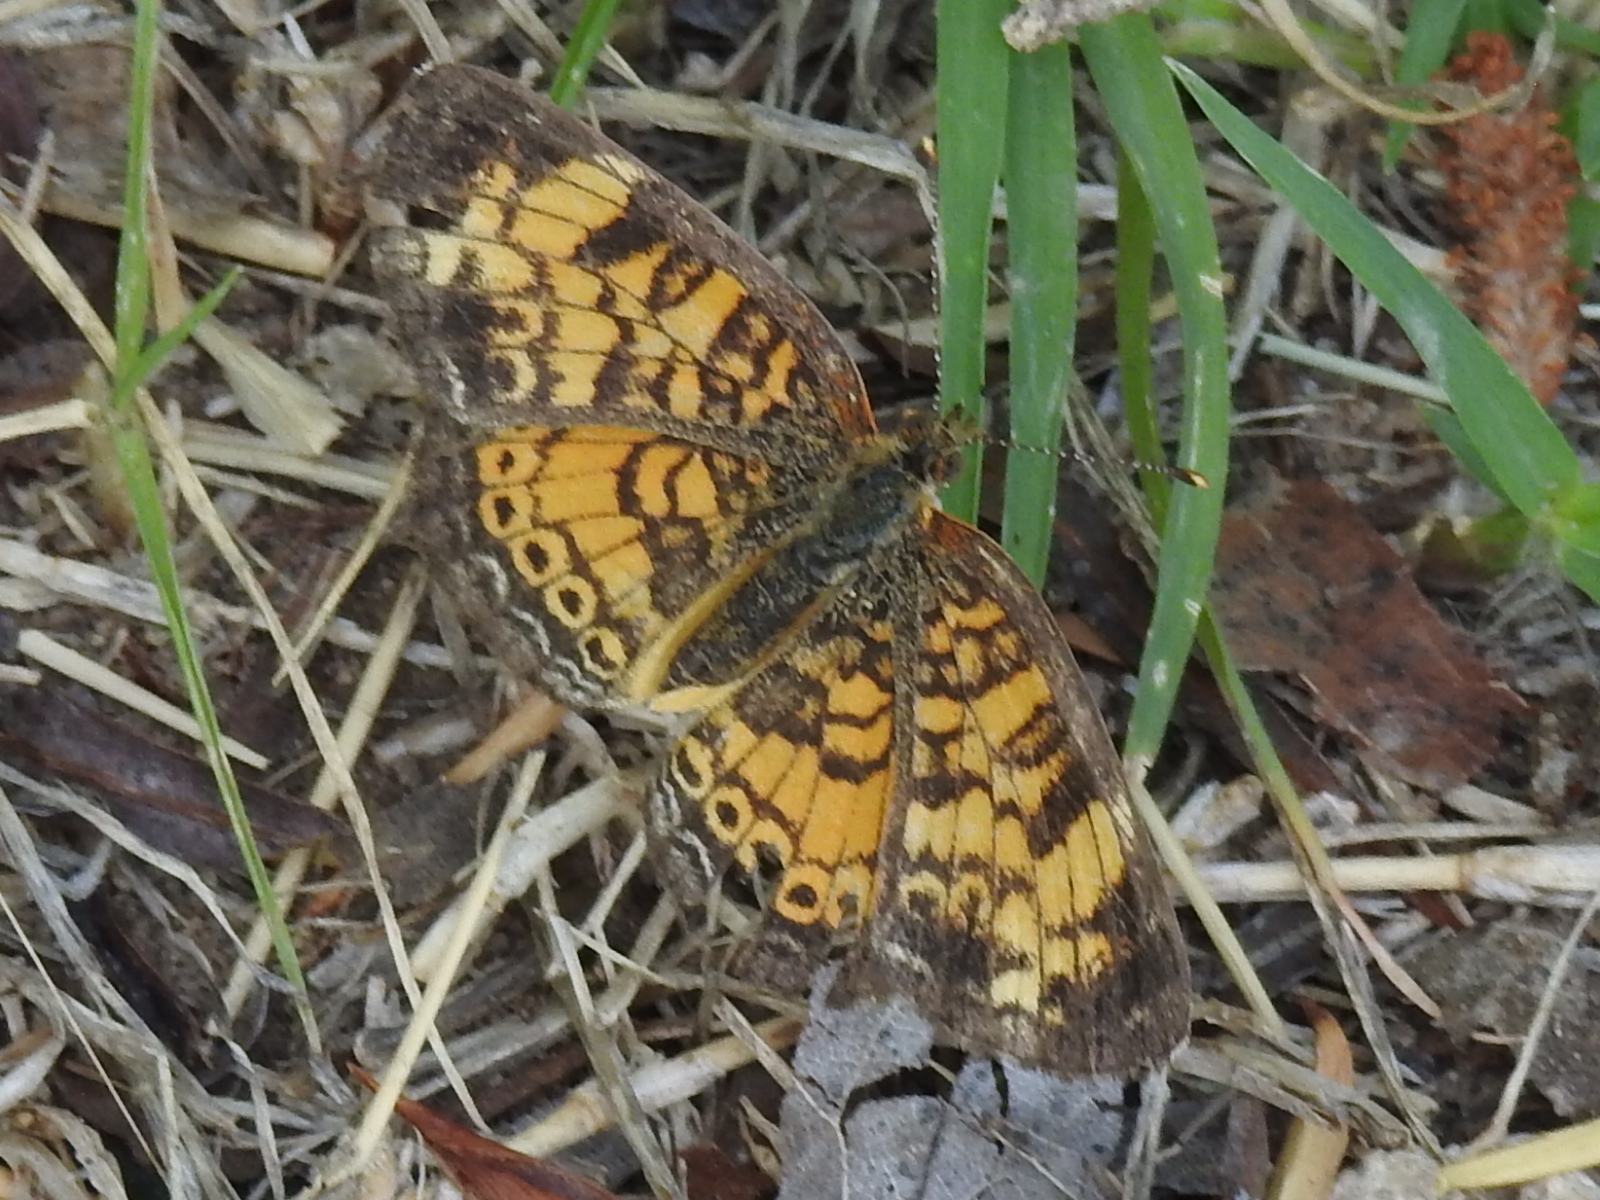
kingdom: Animalia
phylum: Arthropoda
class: Insecta
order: Lepidoptera
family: Nymphalidae
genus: Phyciodes
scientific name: Phyciodes tharos
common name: Pearl crescent
